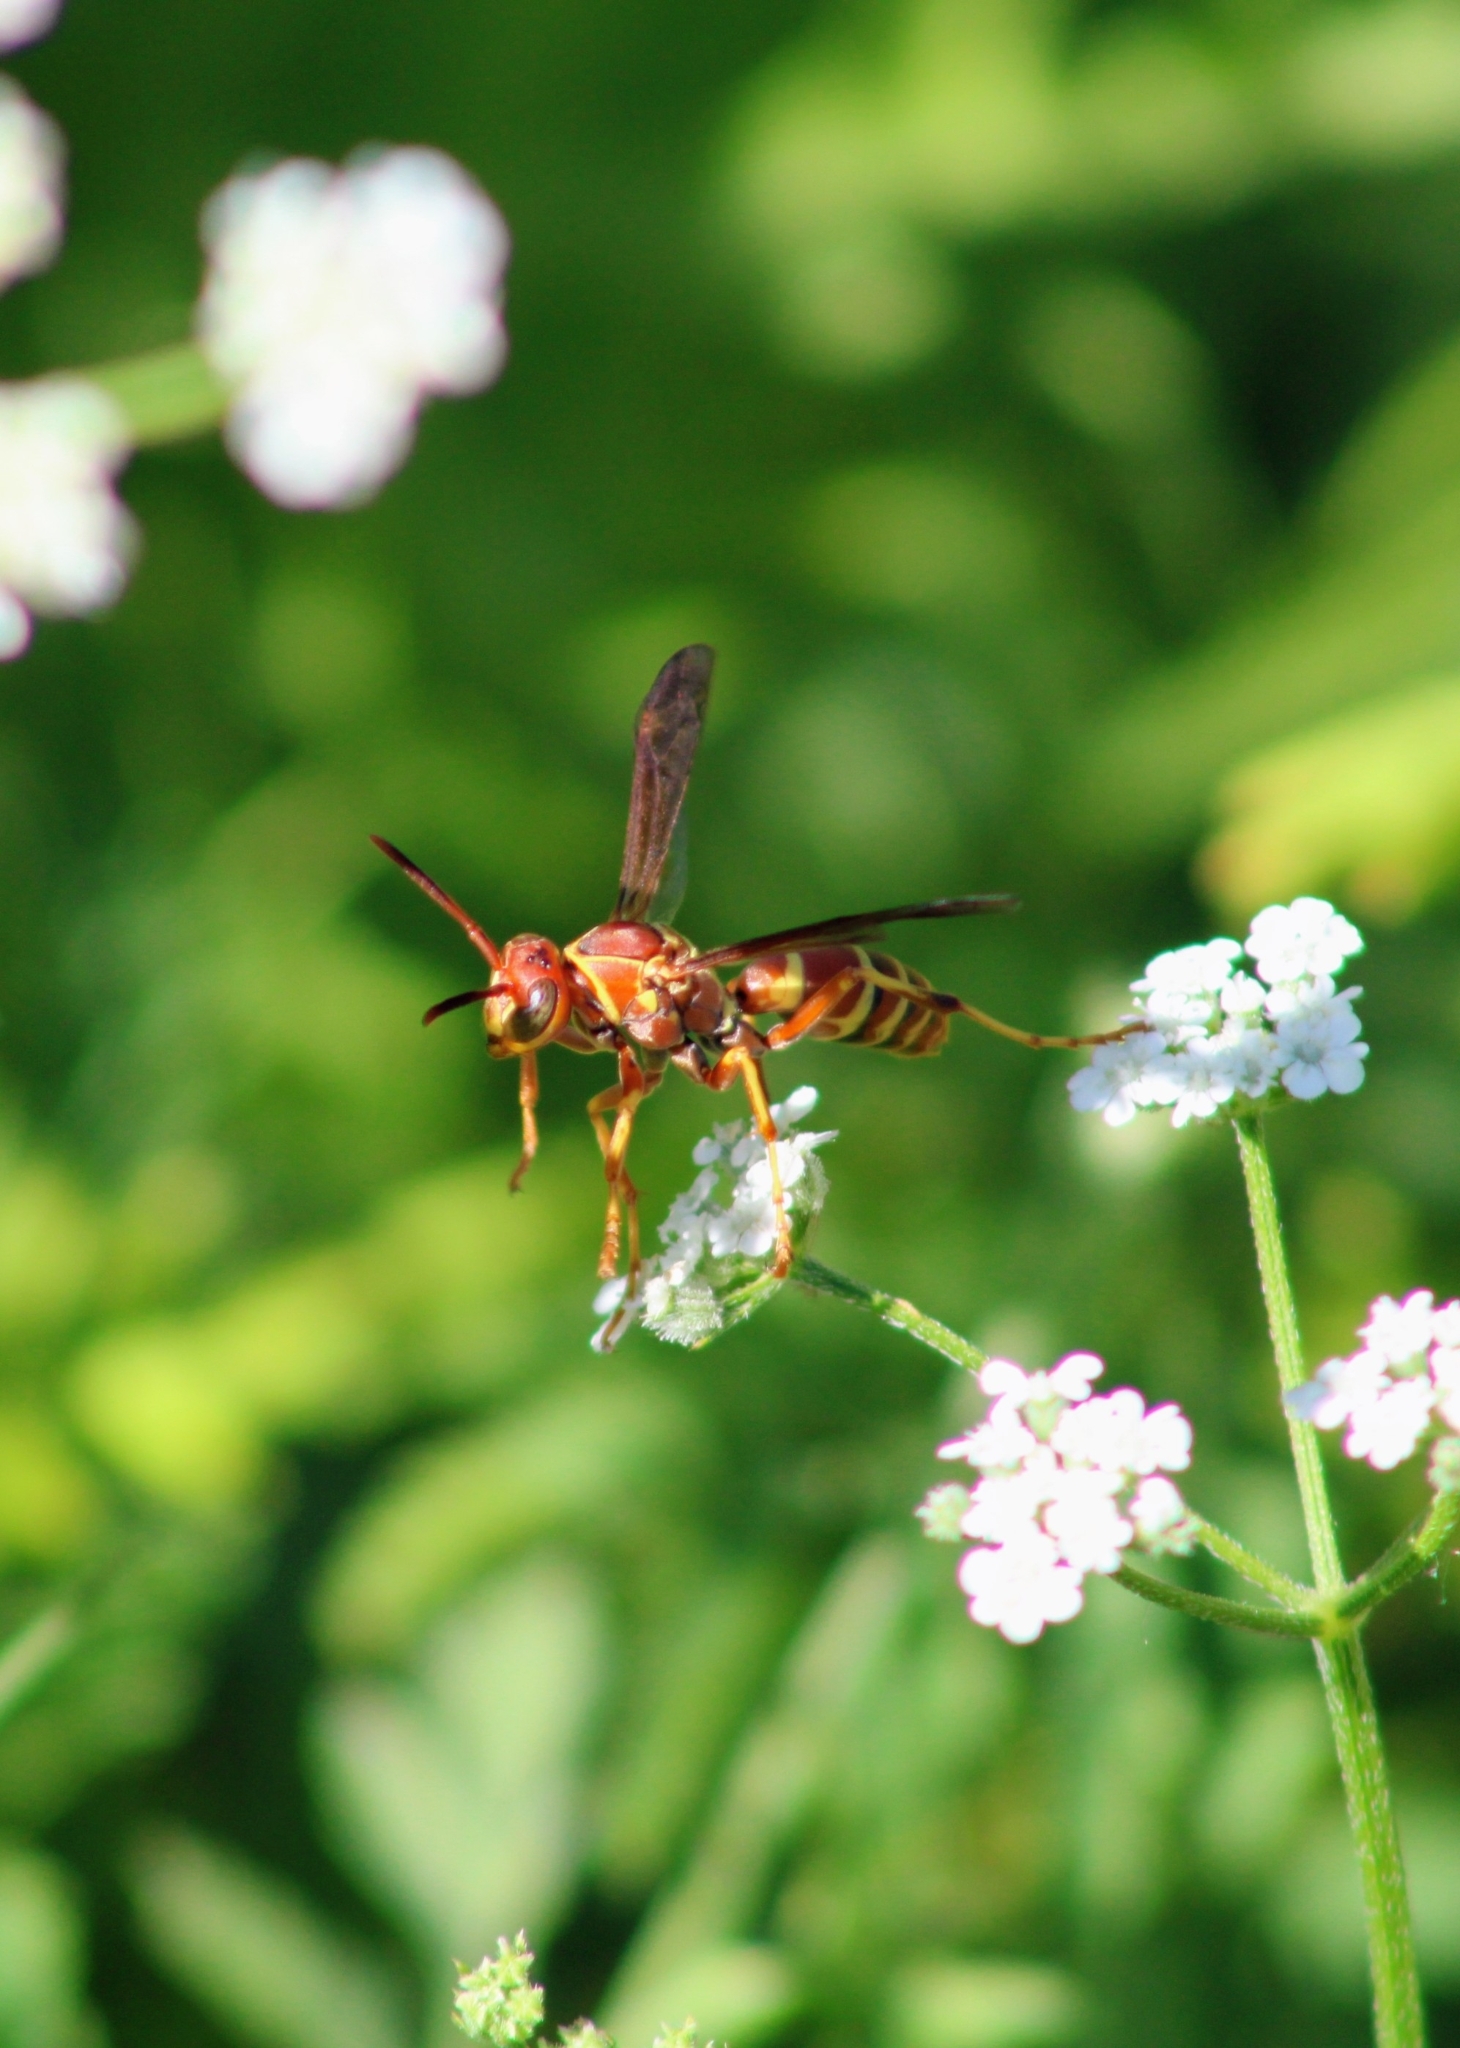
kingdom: Animalia
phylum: Arthropoda
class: Insecta
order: Hymenoptera
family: Eumenidae
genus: Polistes
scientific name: Polistes dorsalis
